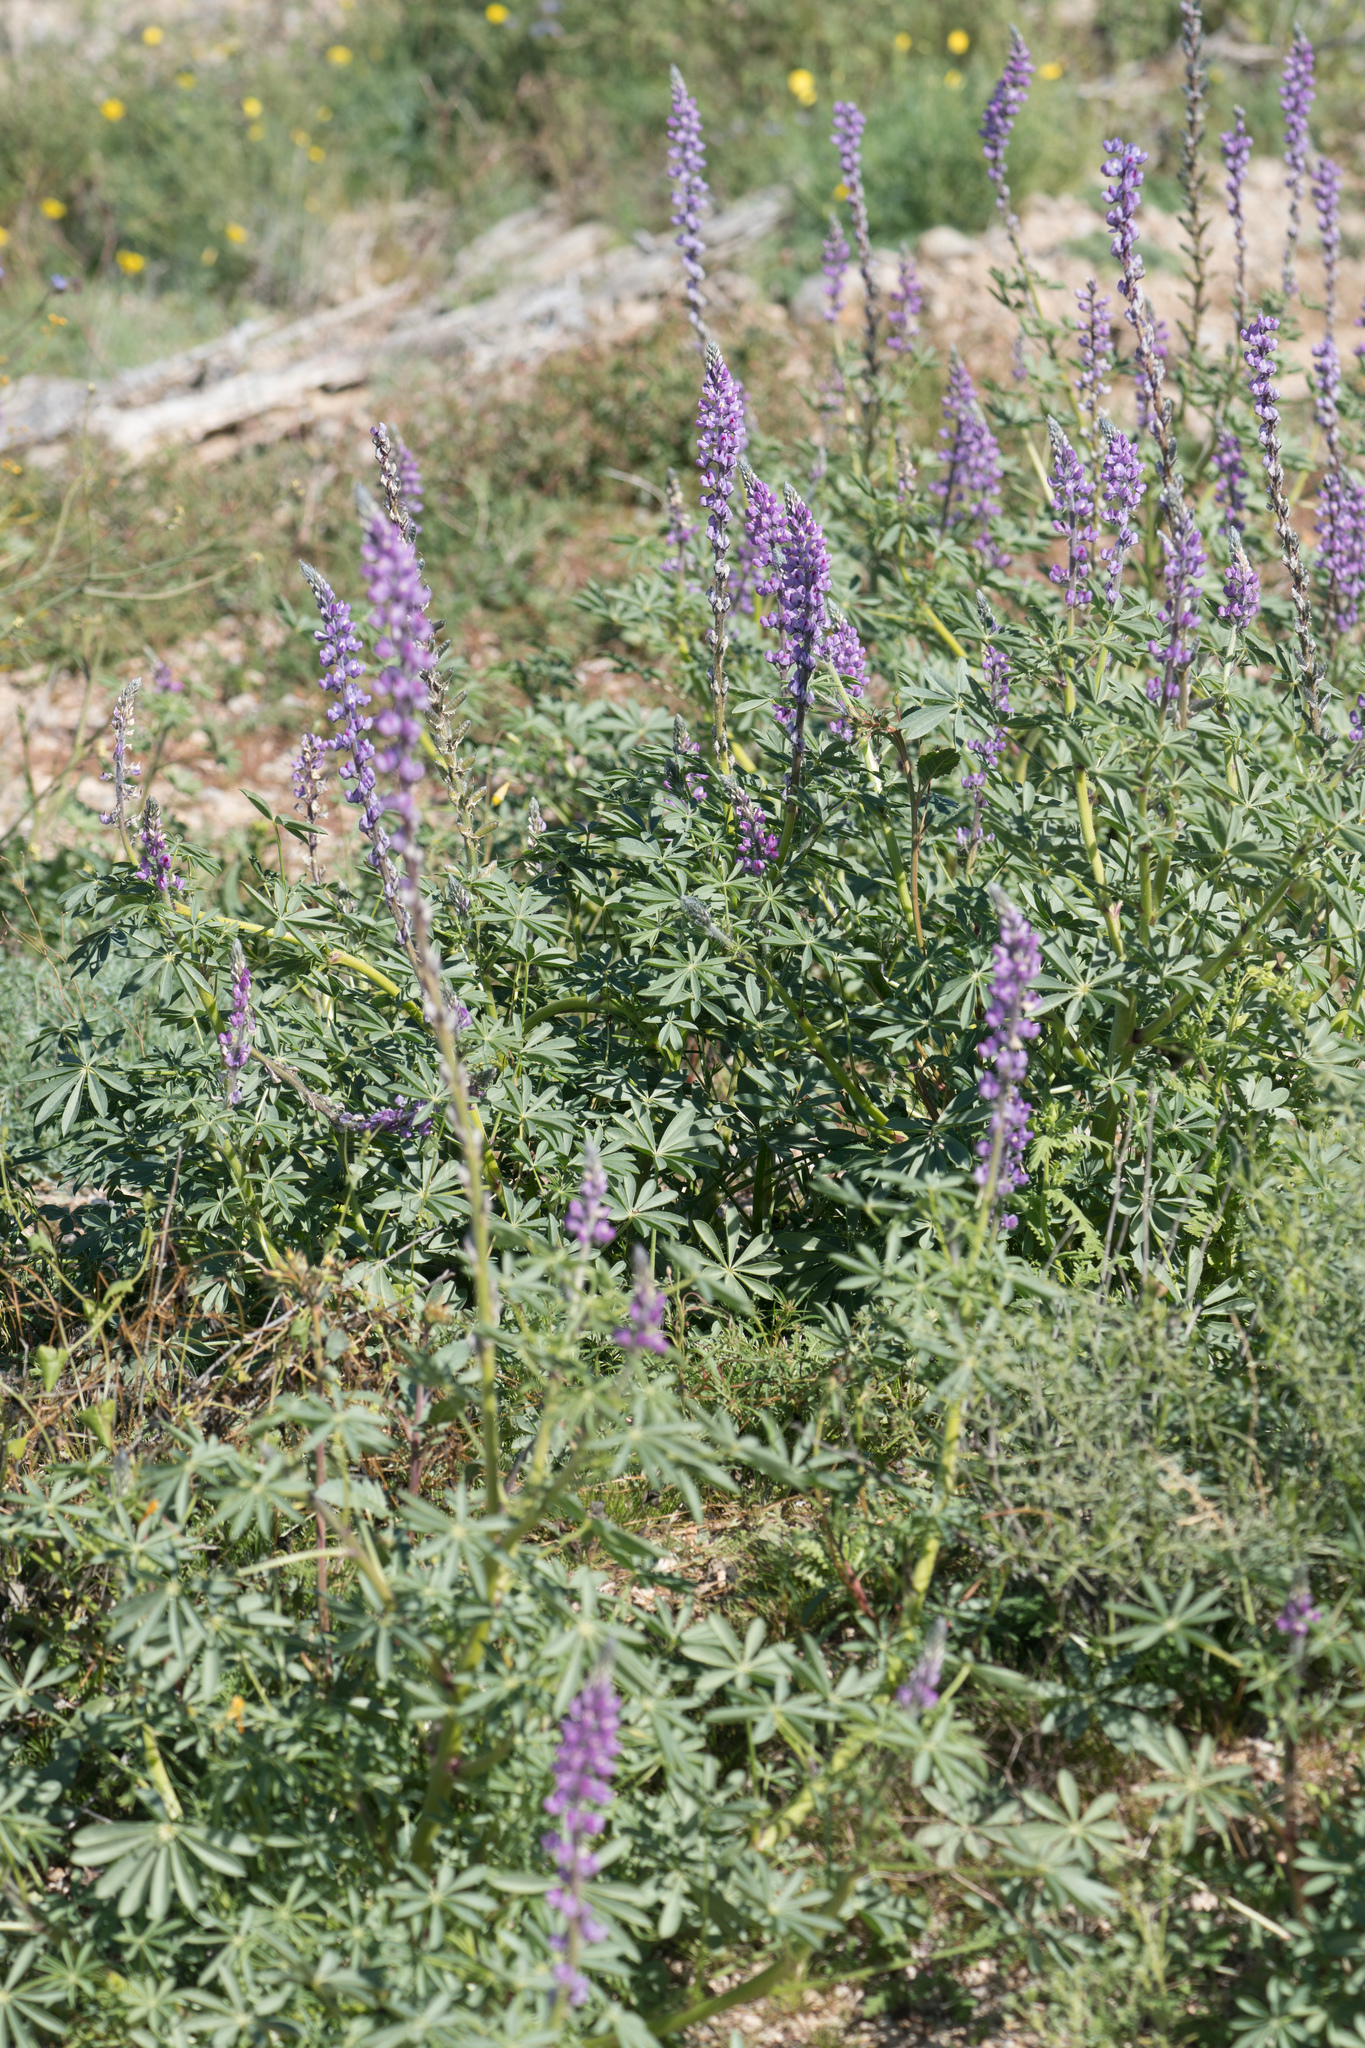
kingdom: Plantae
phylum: Tracheophyta
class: Magnoliopsida
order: Fabales
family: Fabaceae
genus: Lupinus
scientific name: Lupinus arizonicus
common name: Arizona lupine
